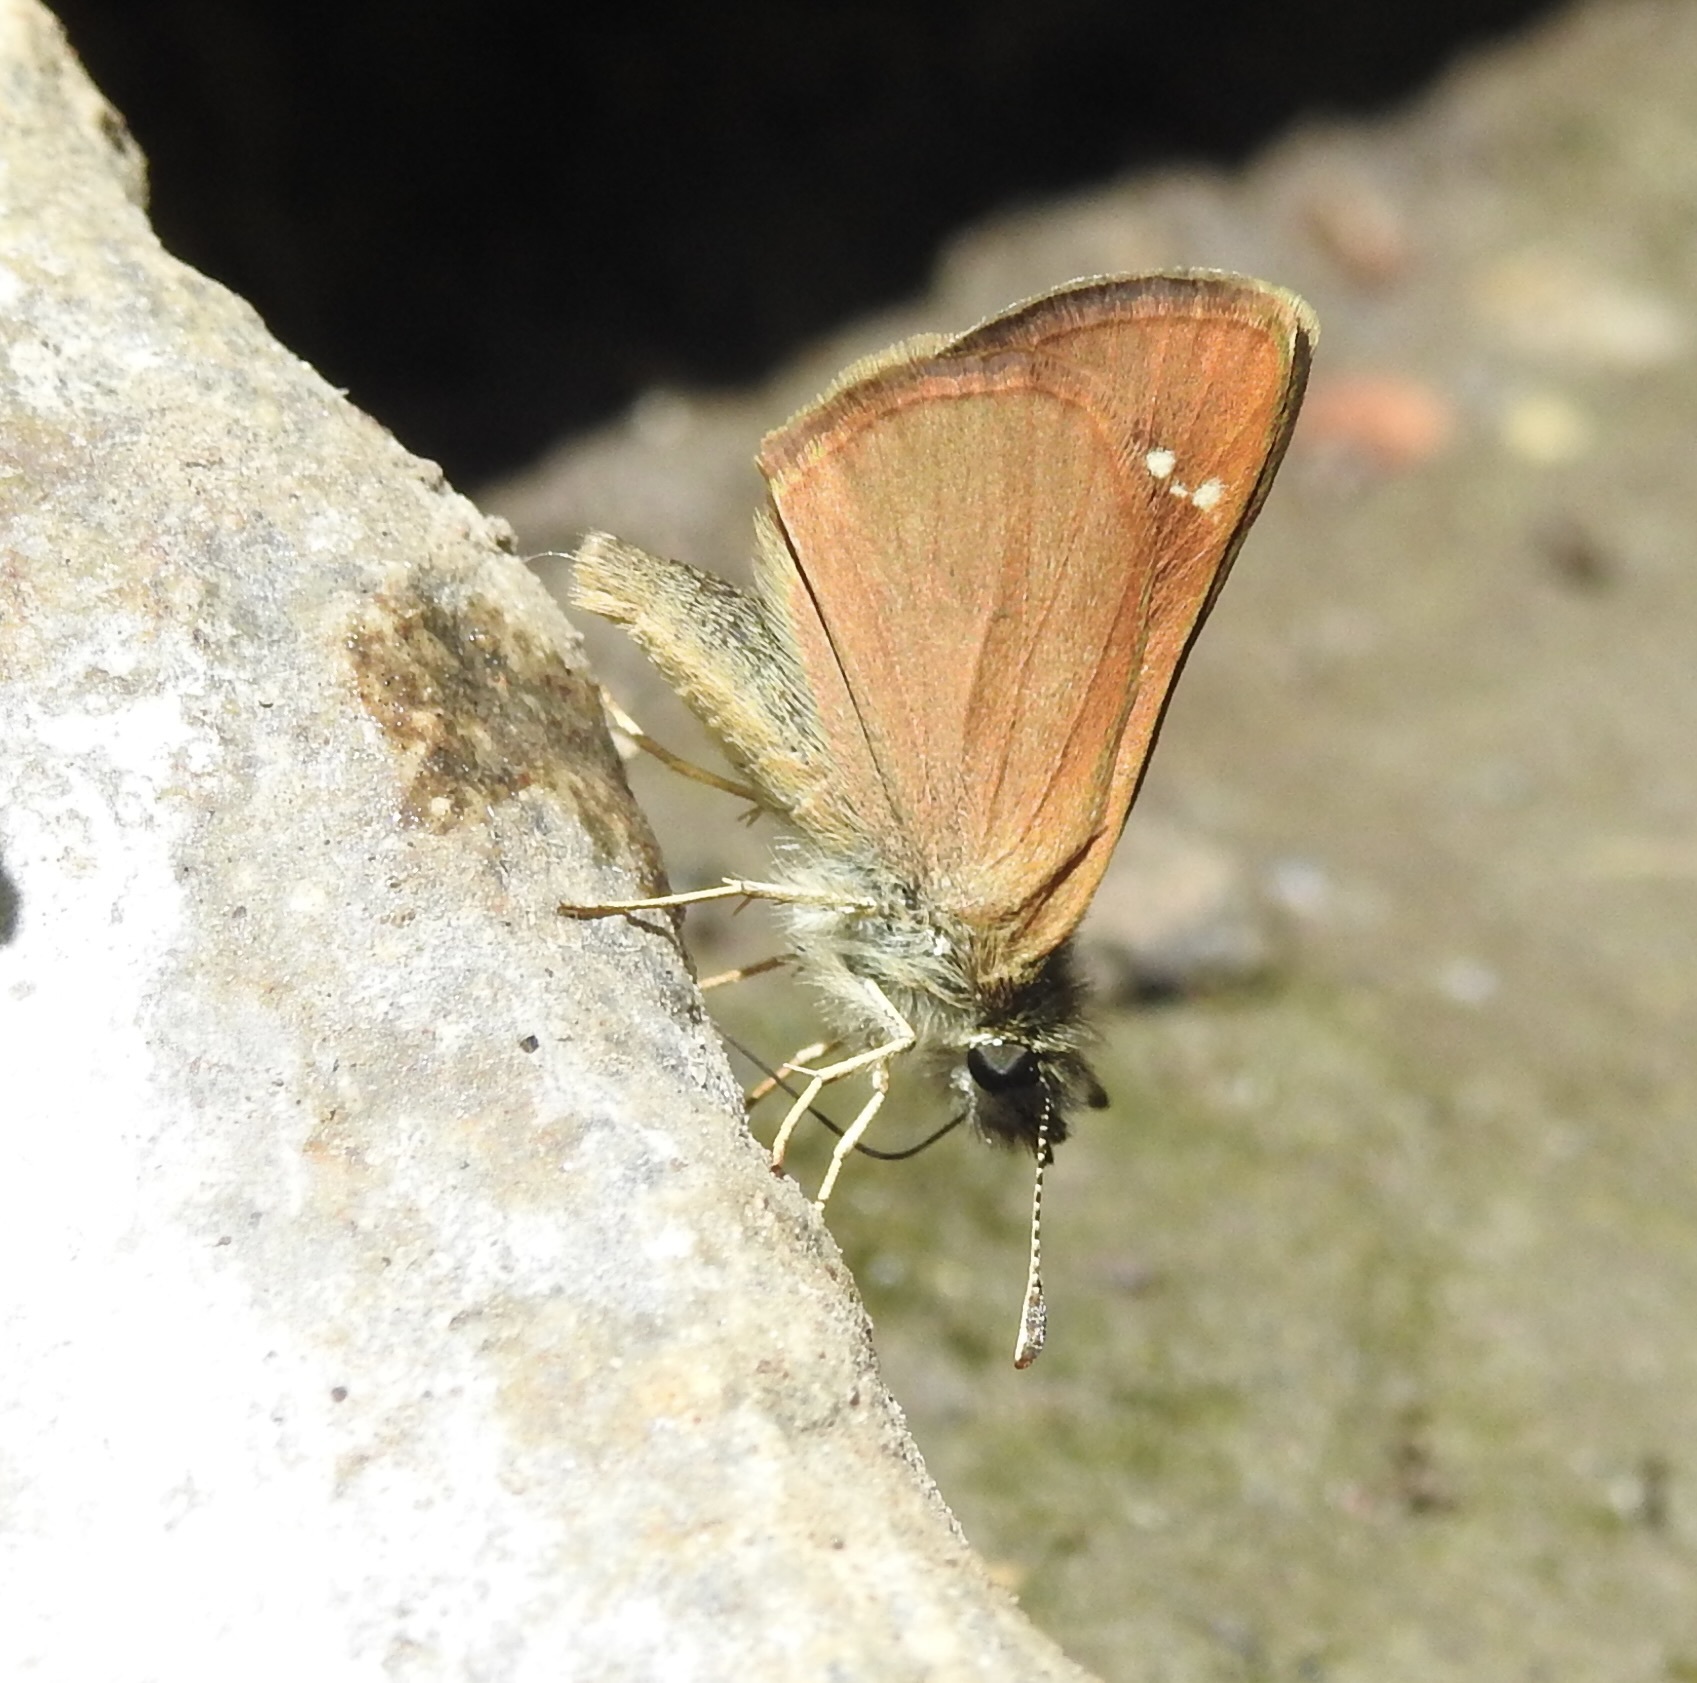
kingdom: Animalia
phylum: Arthropoda
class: Insecta
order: Lepidoptera
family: Hesperiidae
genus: Piruna
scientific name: Piruna pirus
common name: Russet skipperling
